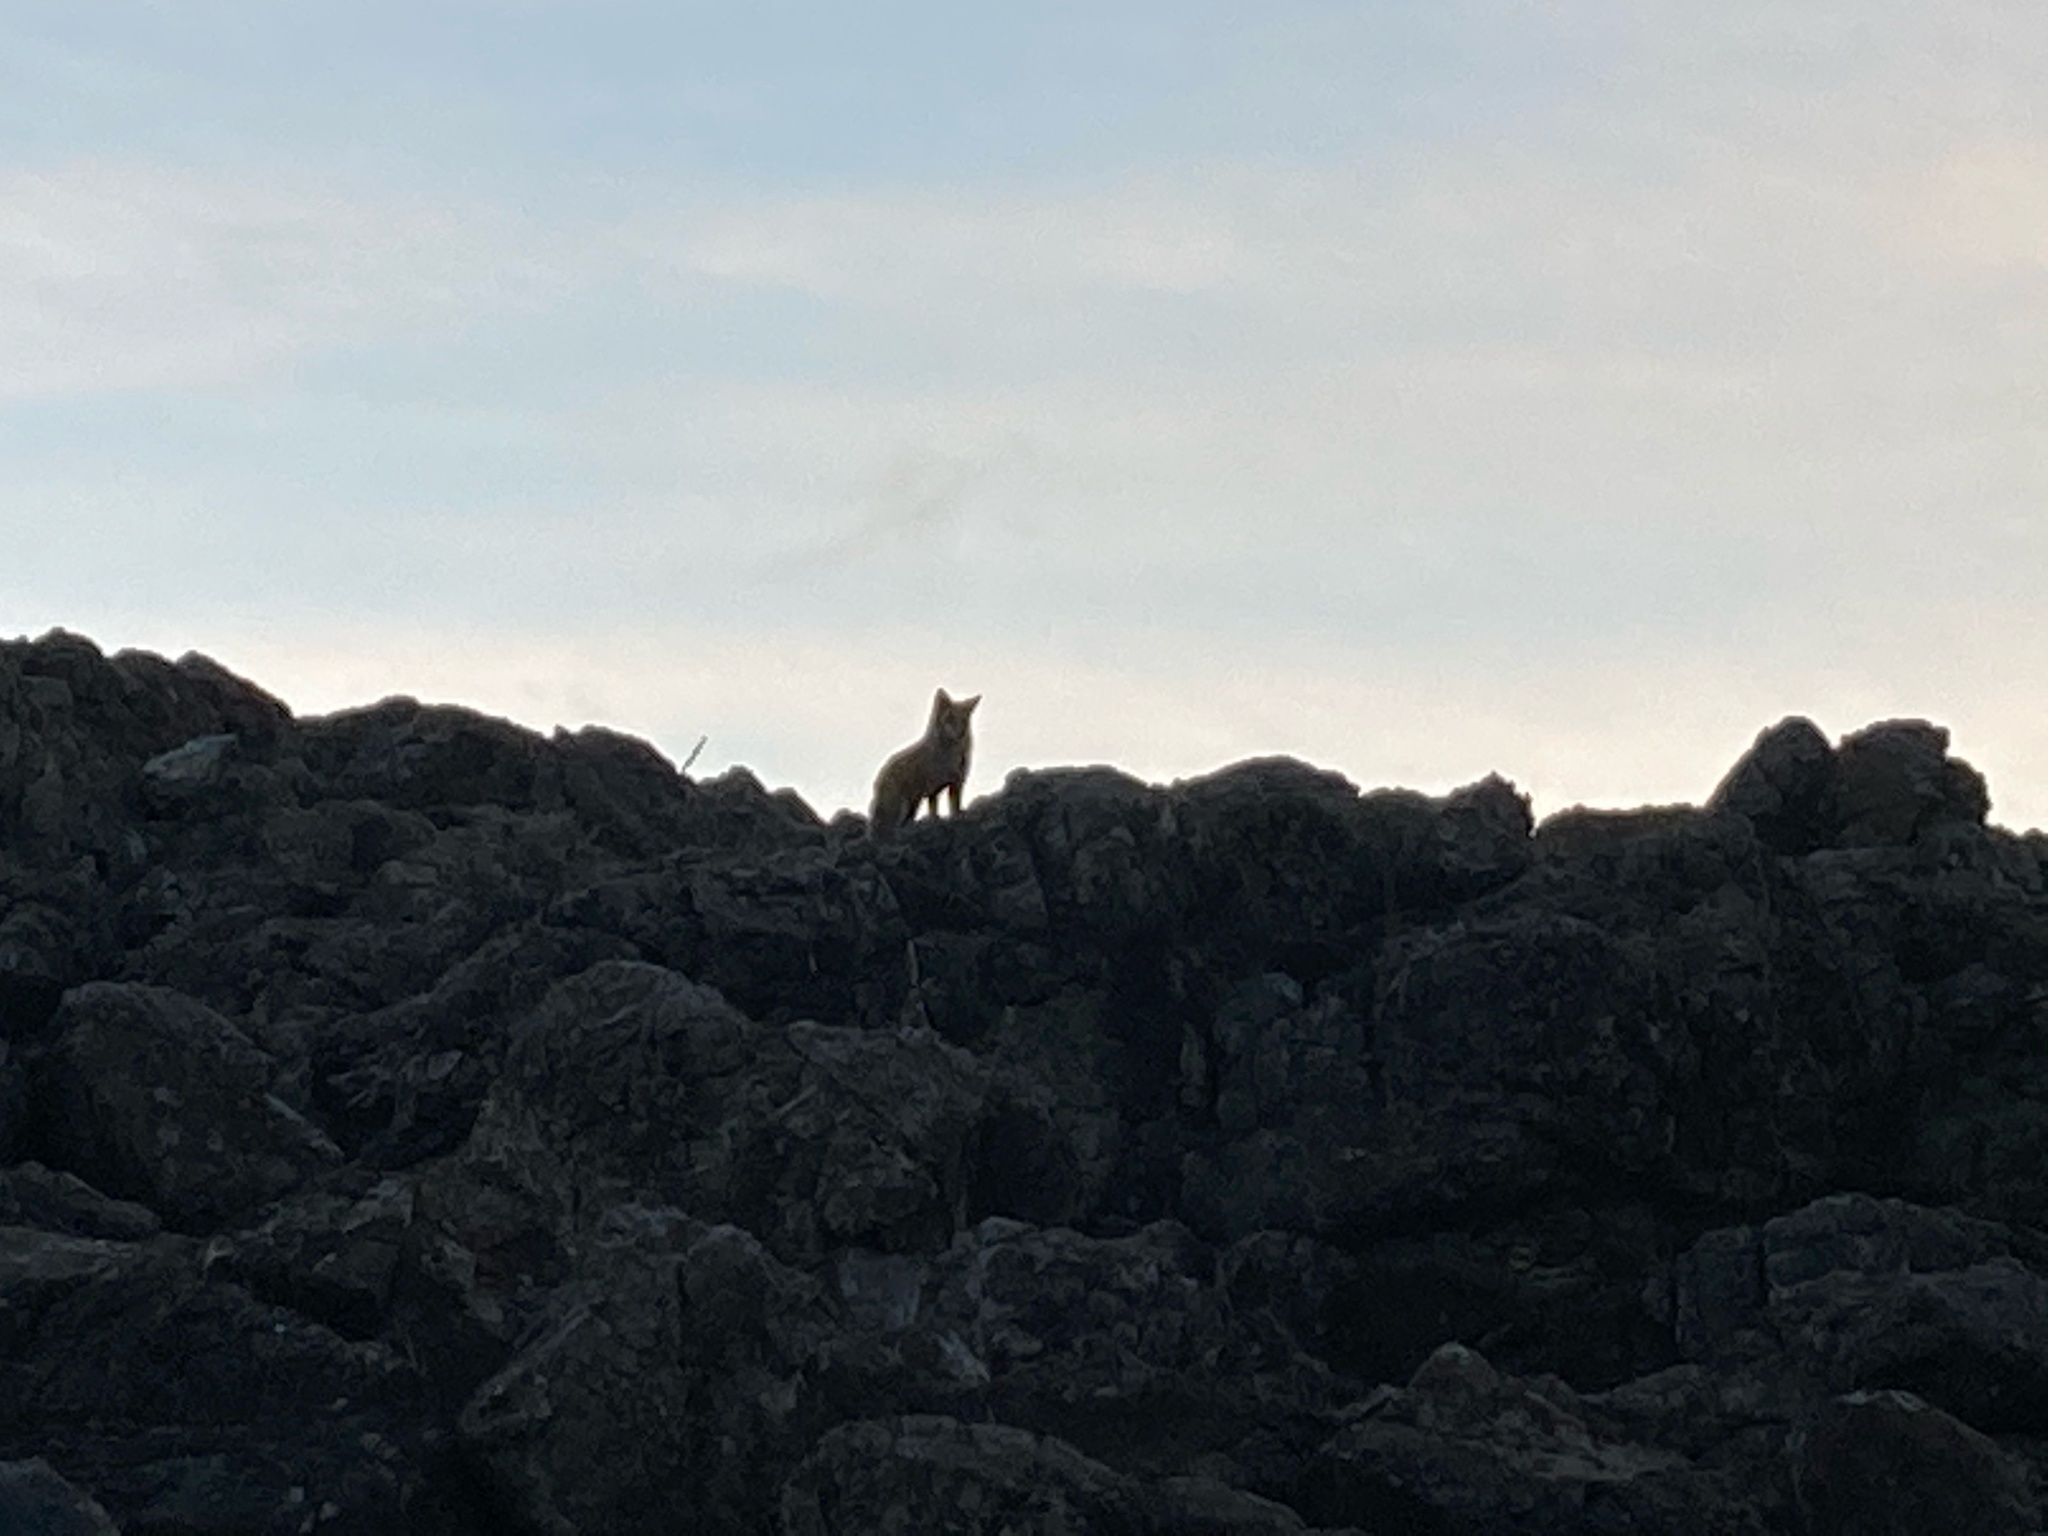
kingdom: Animalia
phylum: Chordata
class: Mammalia
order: Carnivora
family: Canidae
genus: Canis
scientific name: Canis latrans
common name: Coyote
